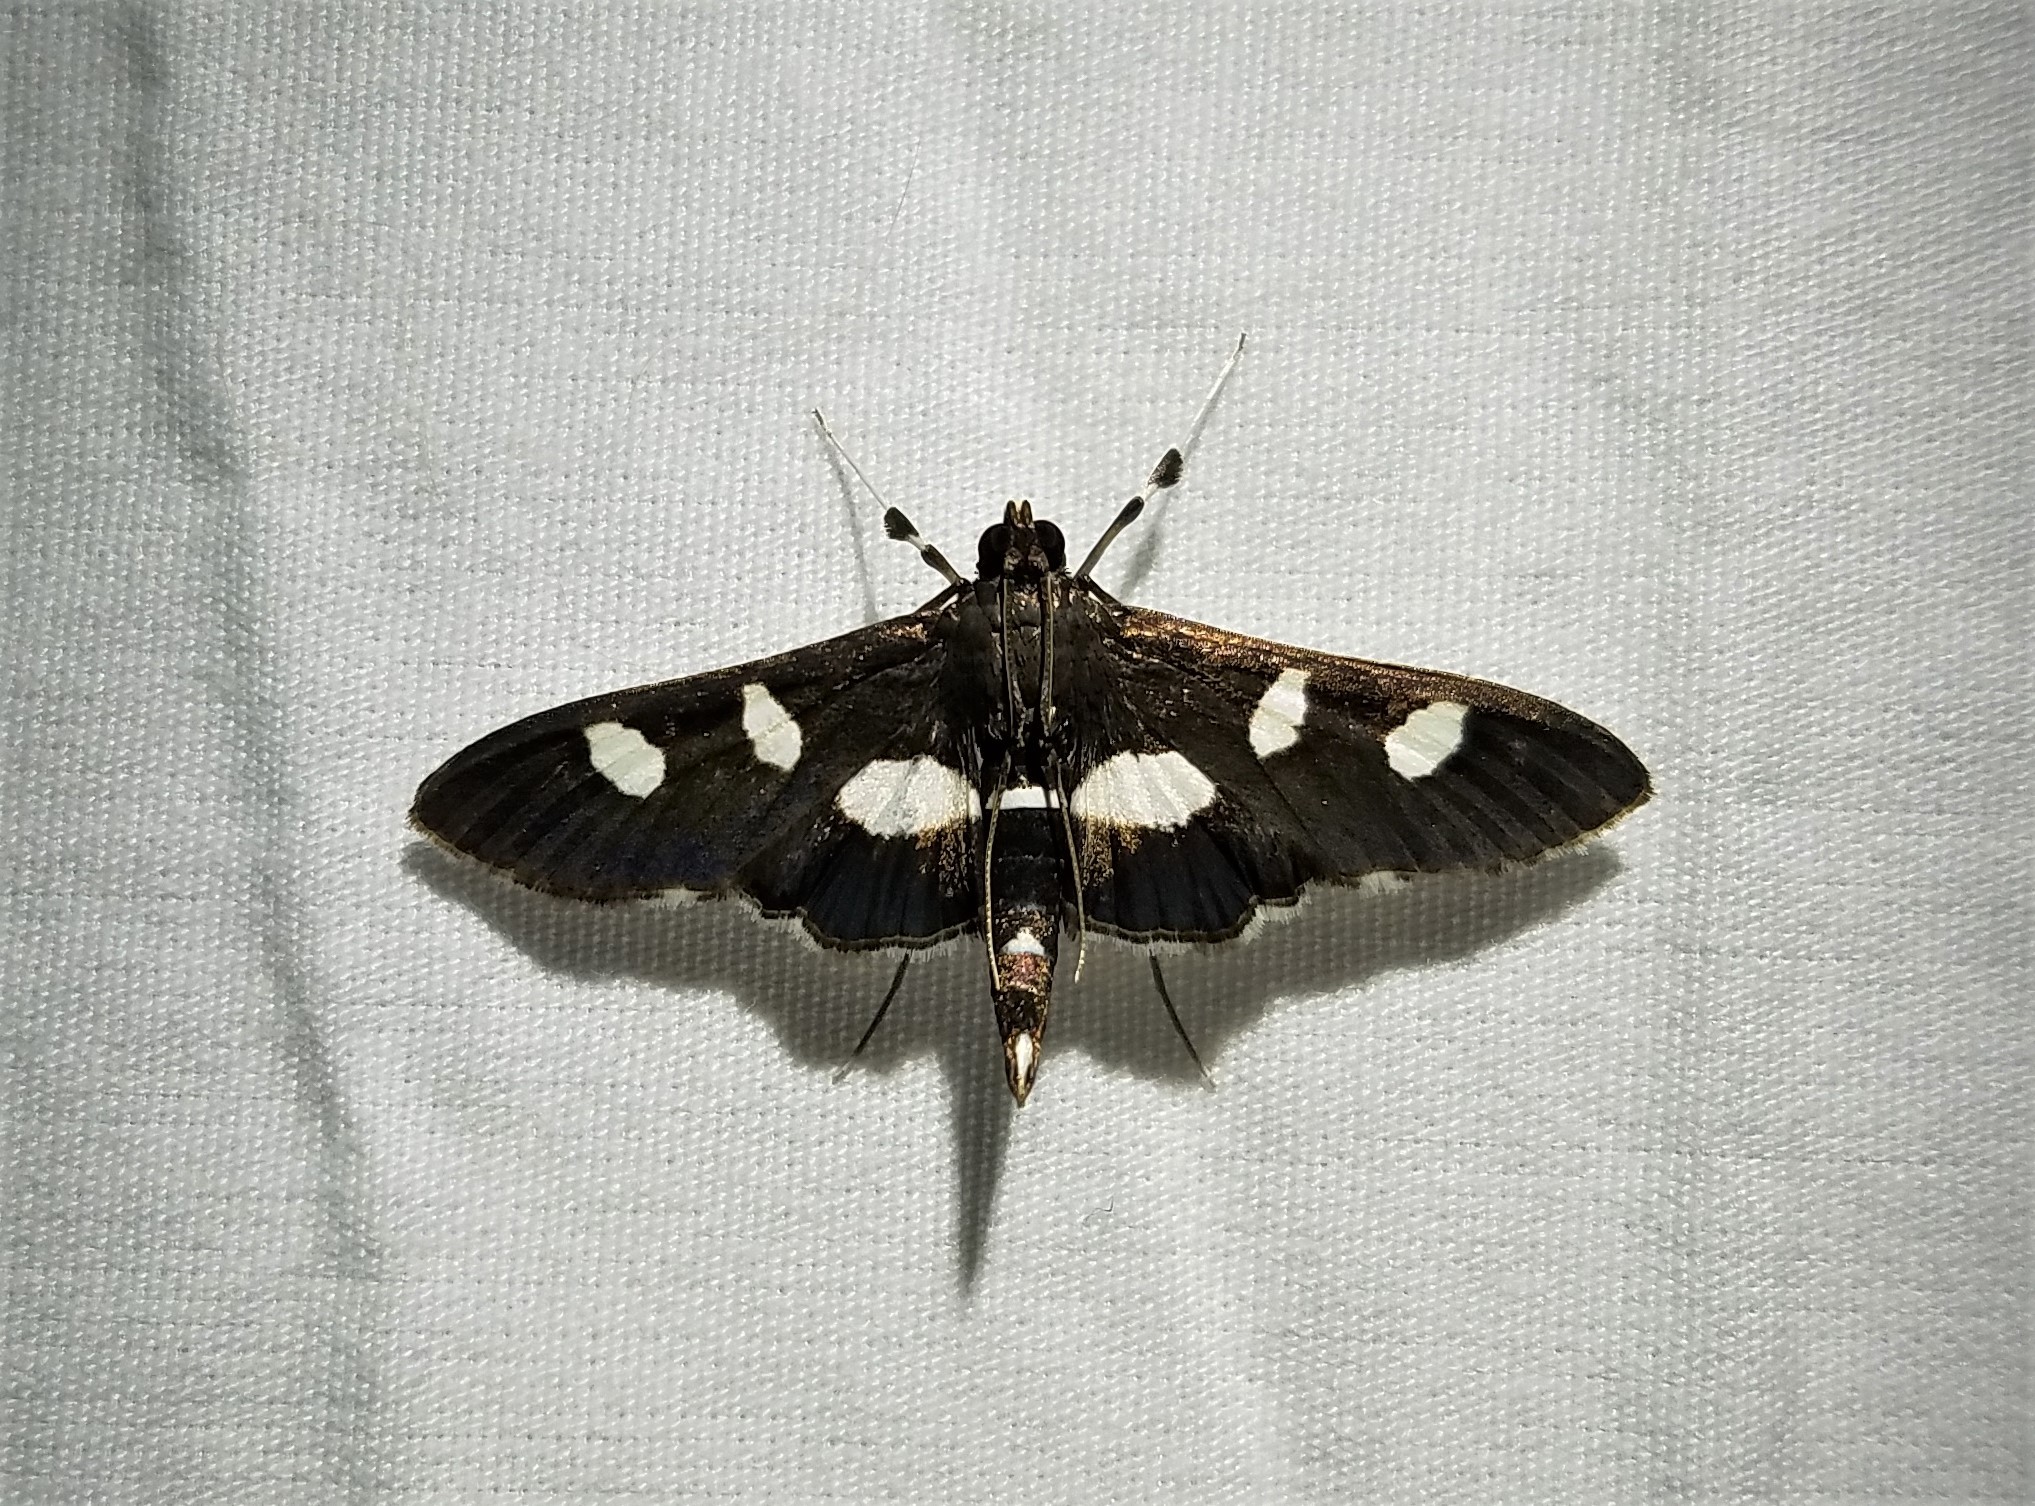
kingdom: Animalia
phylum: Arthropoda
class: Insecta
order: Lepidoptera
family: Crambidae
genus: Desmia
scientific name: Desmia
